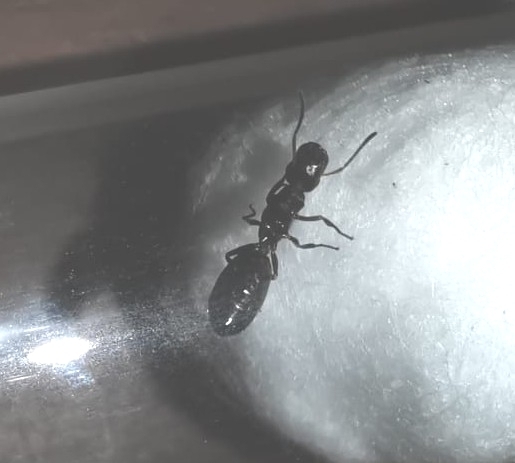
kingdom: Animalia
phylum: Arthropoda
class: Insecta
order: Hymenoptera
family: Formicidae
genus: Camponotus
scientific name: Camponotus truncatus
